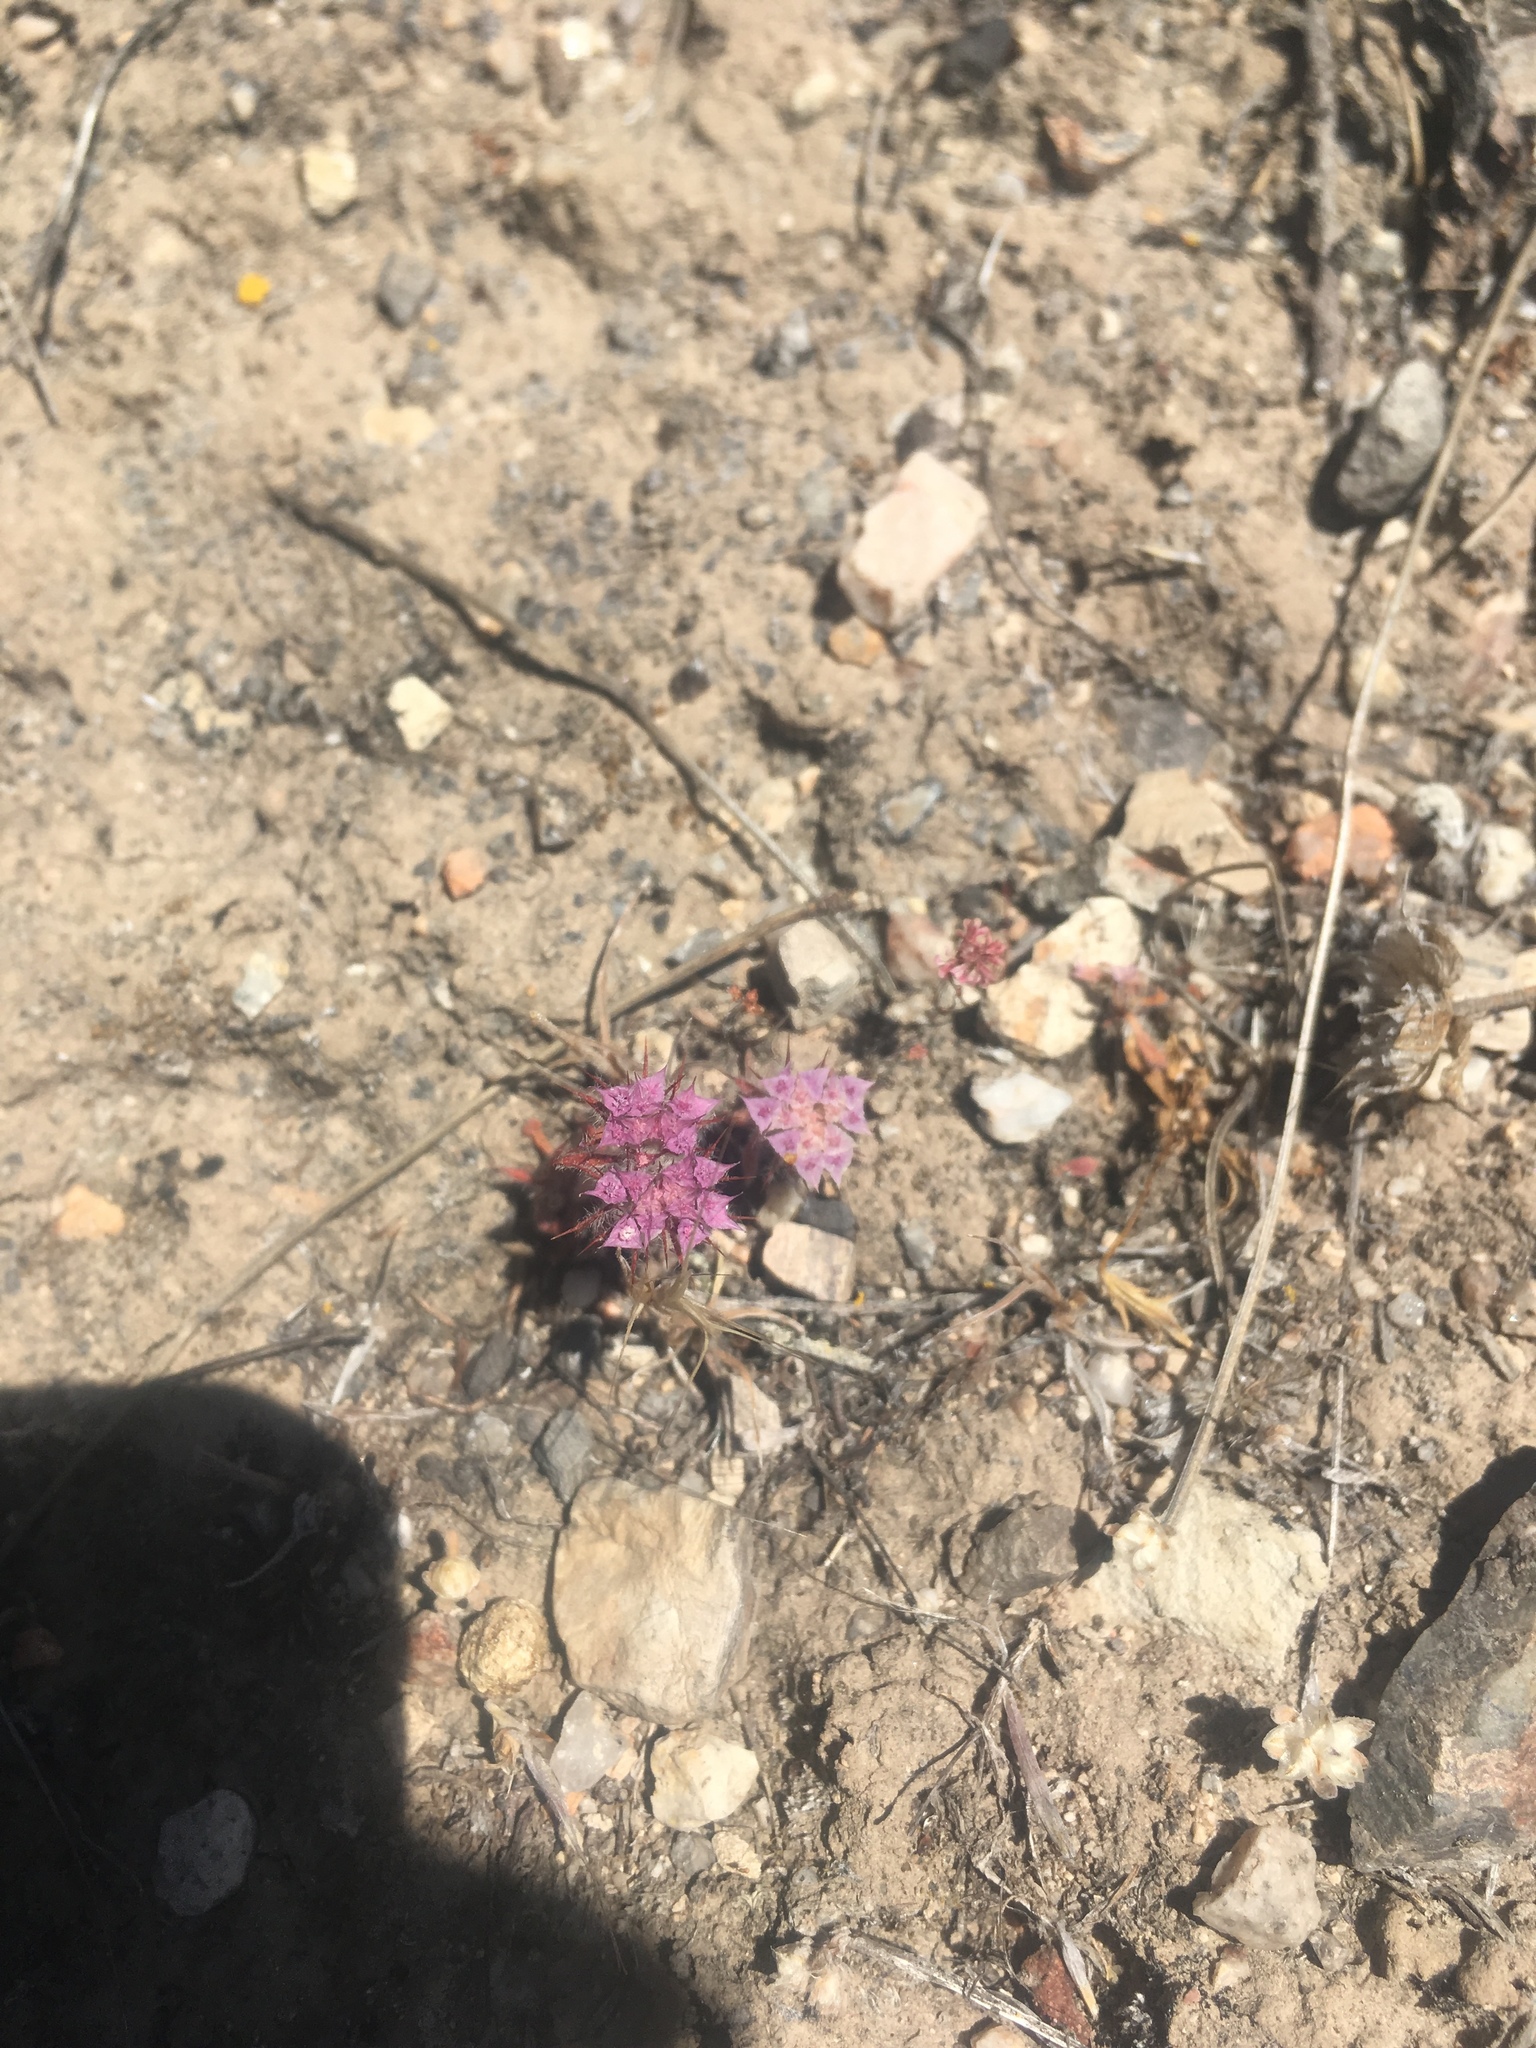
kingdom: Plantae
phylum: Tracheophyta
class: Magnoliopsida
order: Caryophyllales
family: Polygonaceae
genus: Chorizanthe
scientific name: Chorizanthe douglasii
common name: Douglas's spineflower
